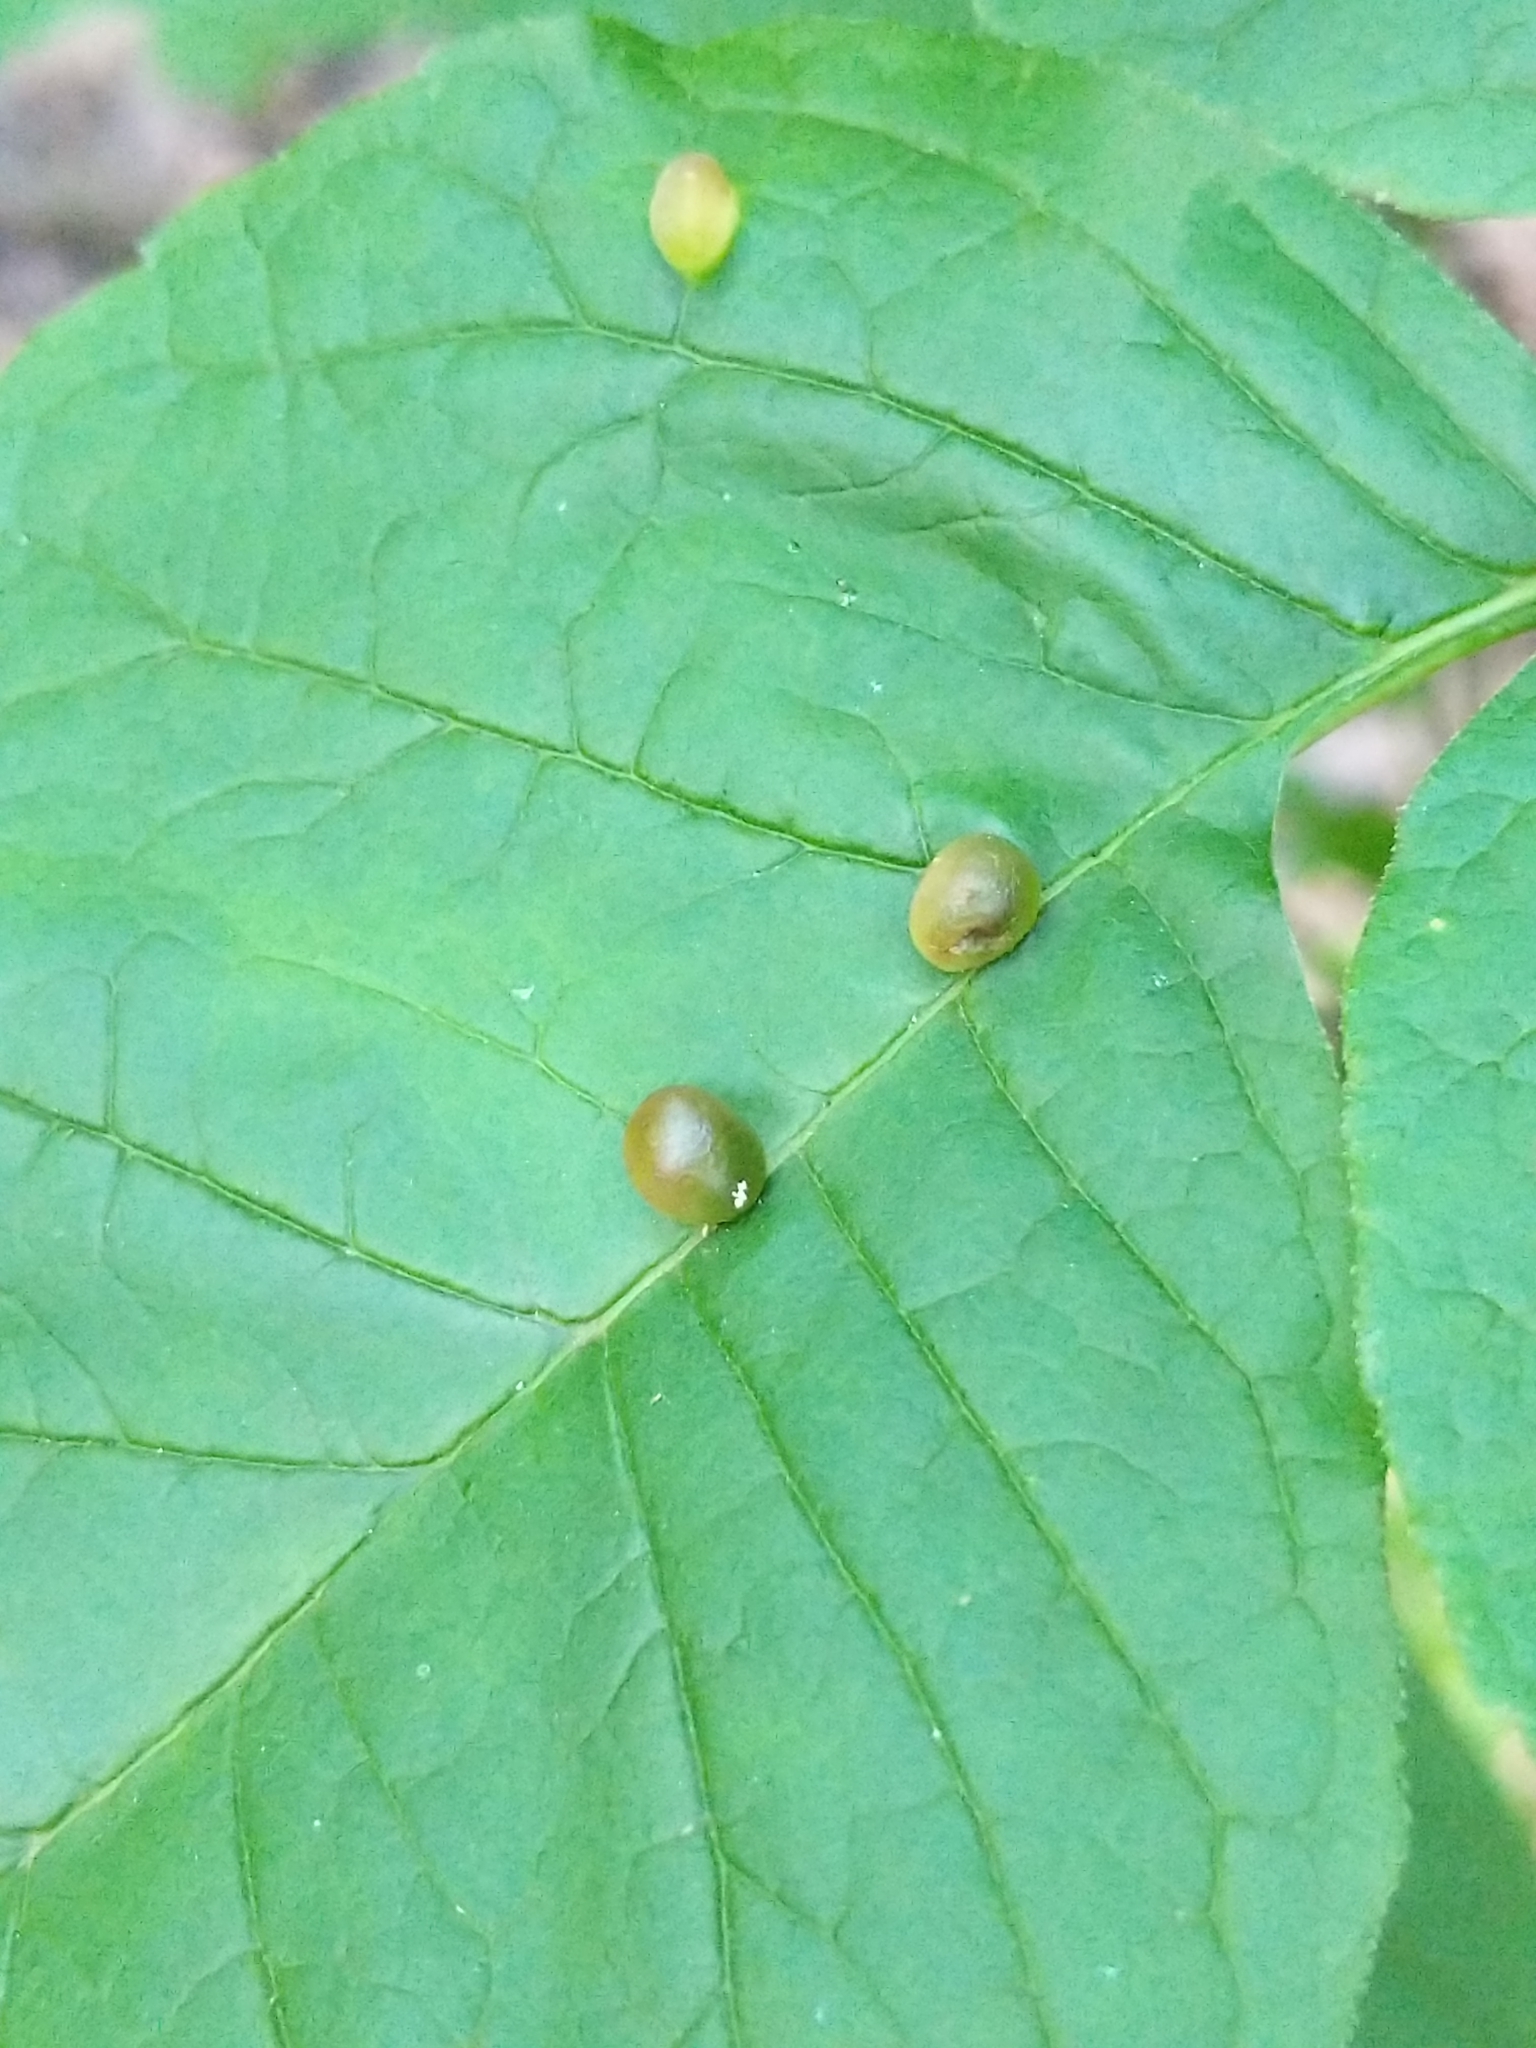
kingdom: Animalia
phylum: Arthropoda
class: Insecta
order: Diptera
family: Cecidomyiidae
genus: Dasineura
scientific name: Dasineura pellex
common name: Ash bullet gall midge
